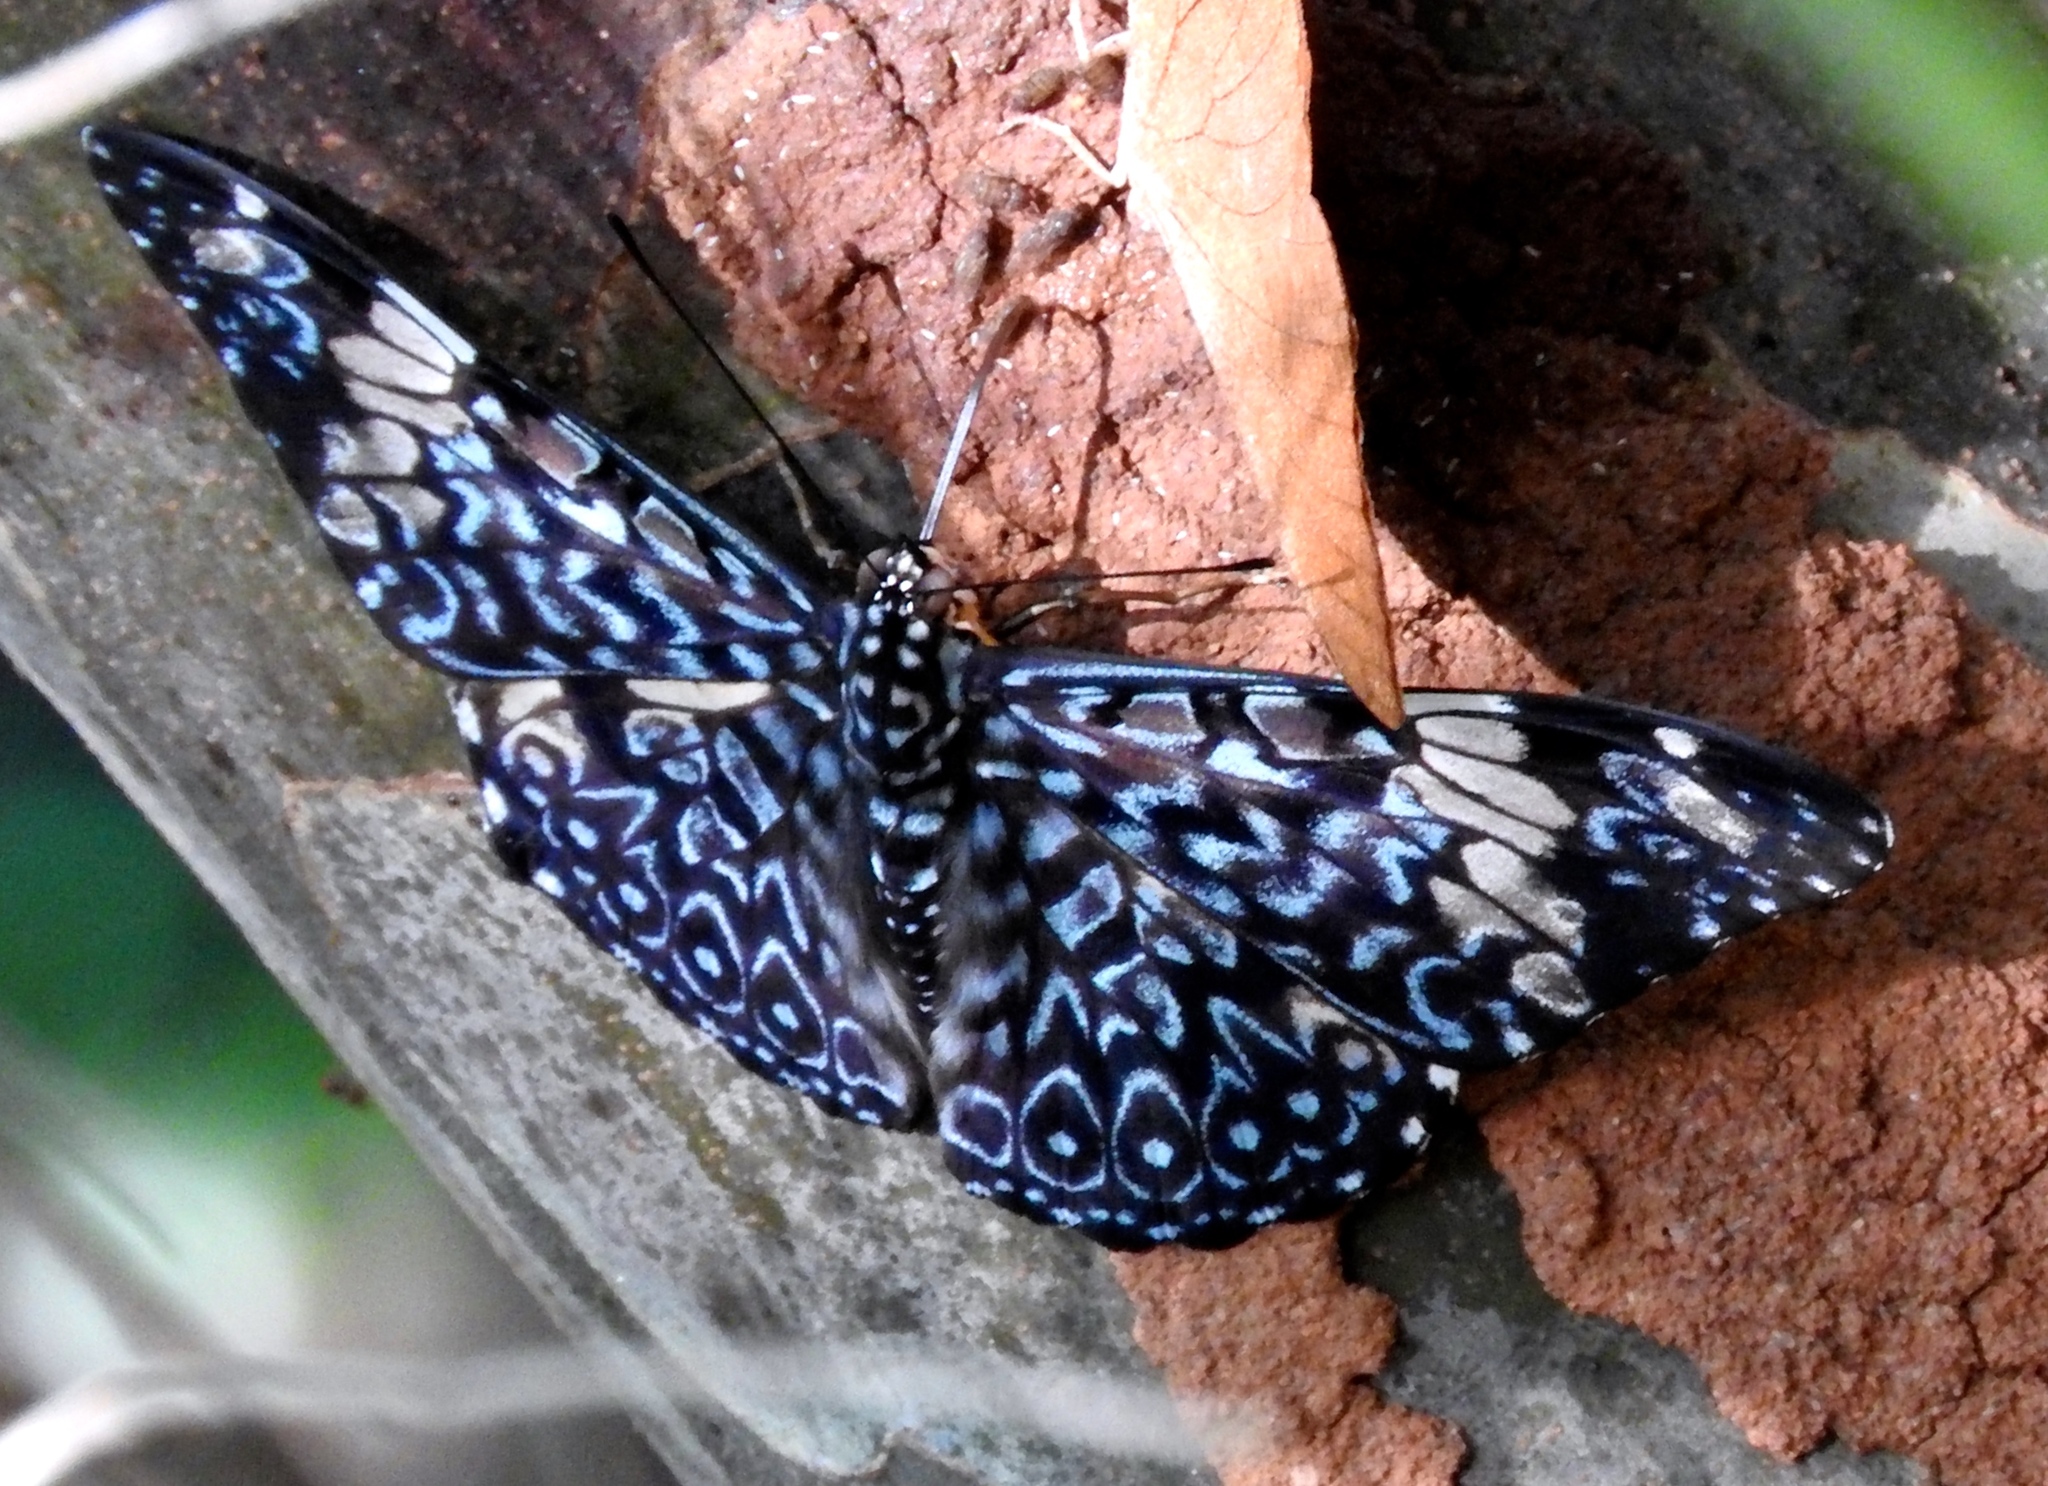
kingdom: Animalia
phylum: Arthropoda
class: Insecta
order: Lepidoptera
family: Nymphalidae
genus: Hamadryas
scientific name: Hamadryas amphinome
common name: Red cracker
